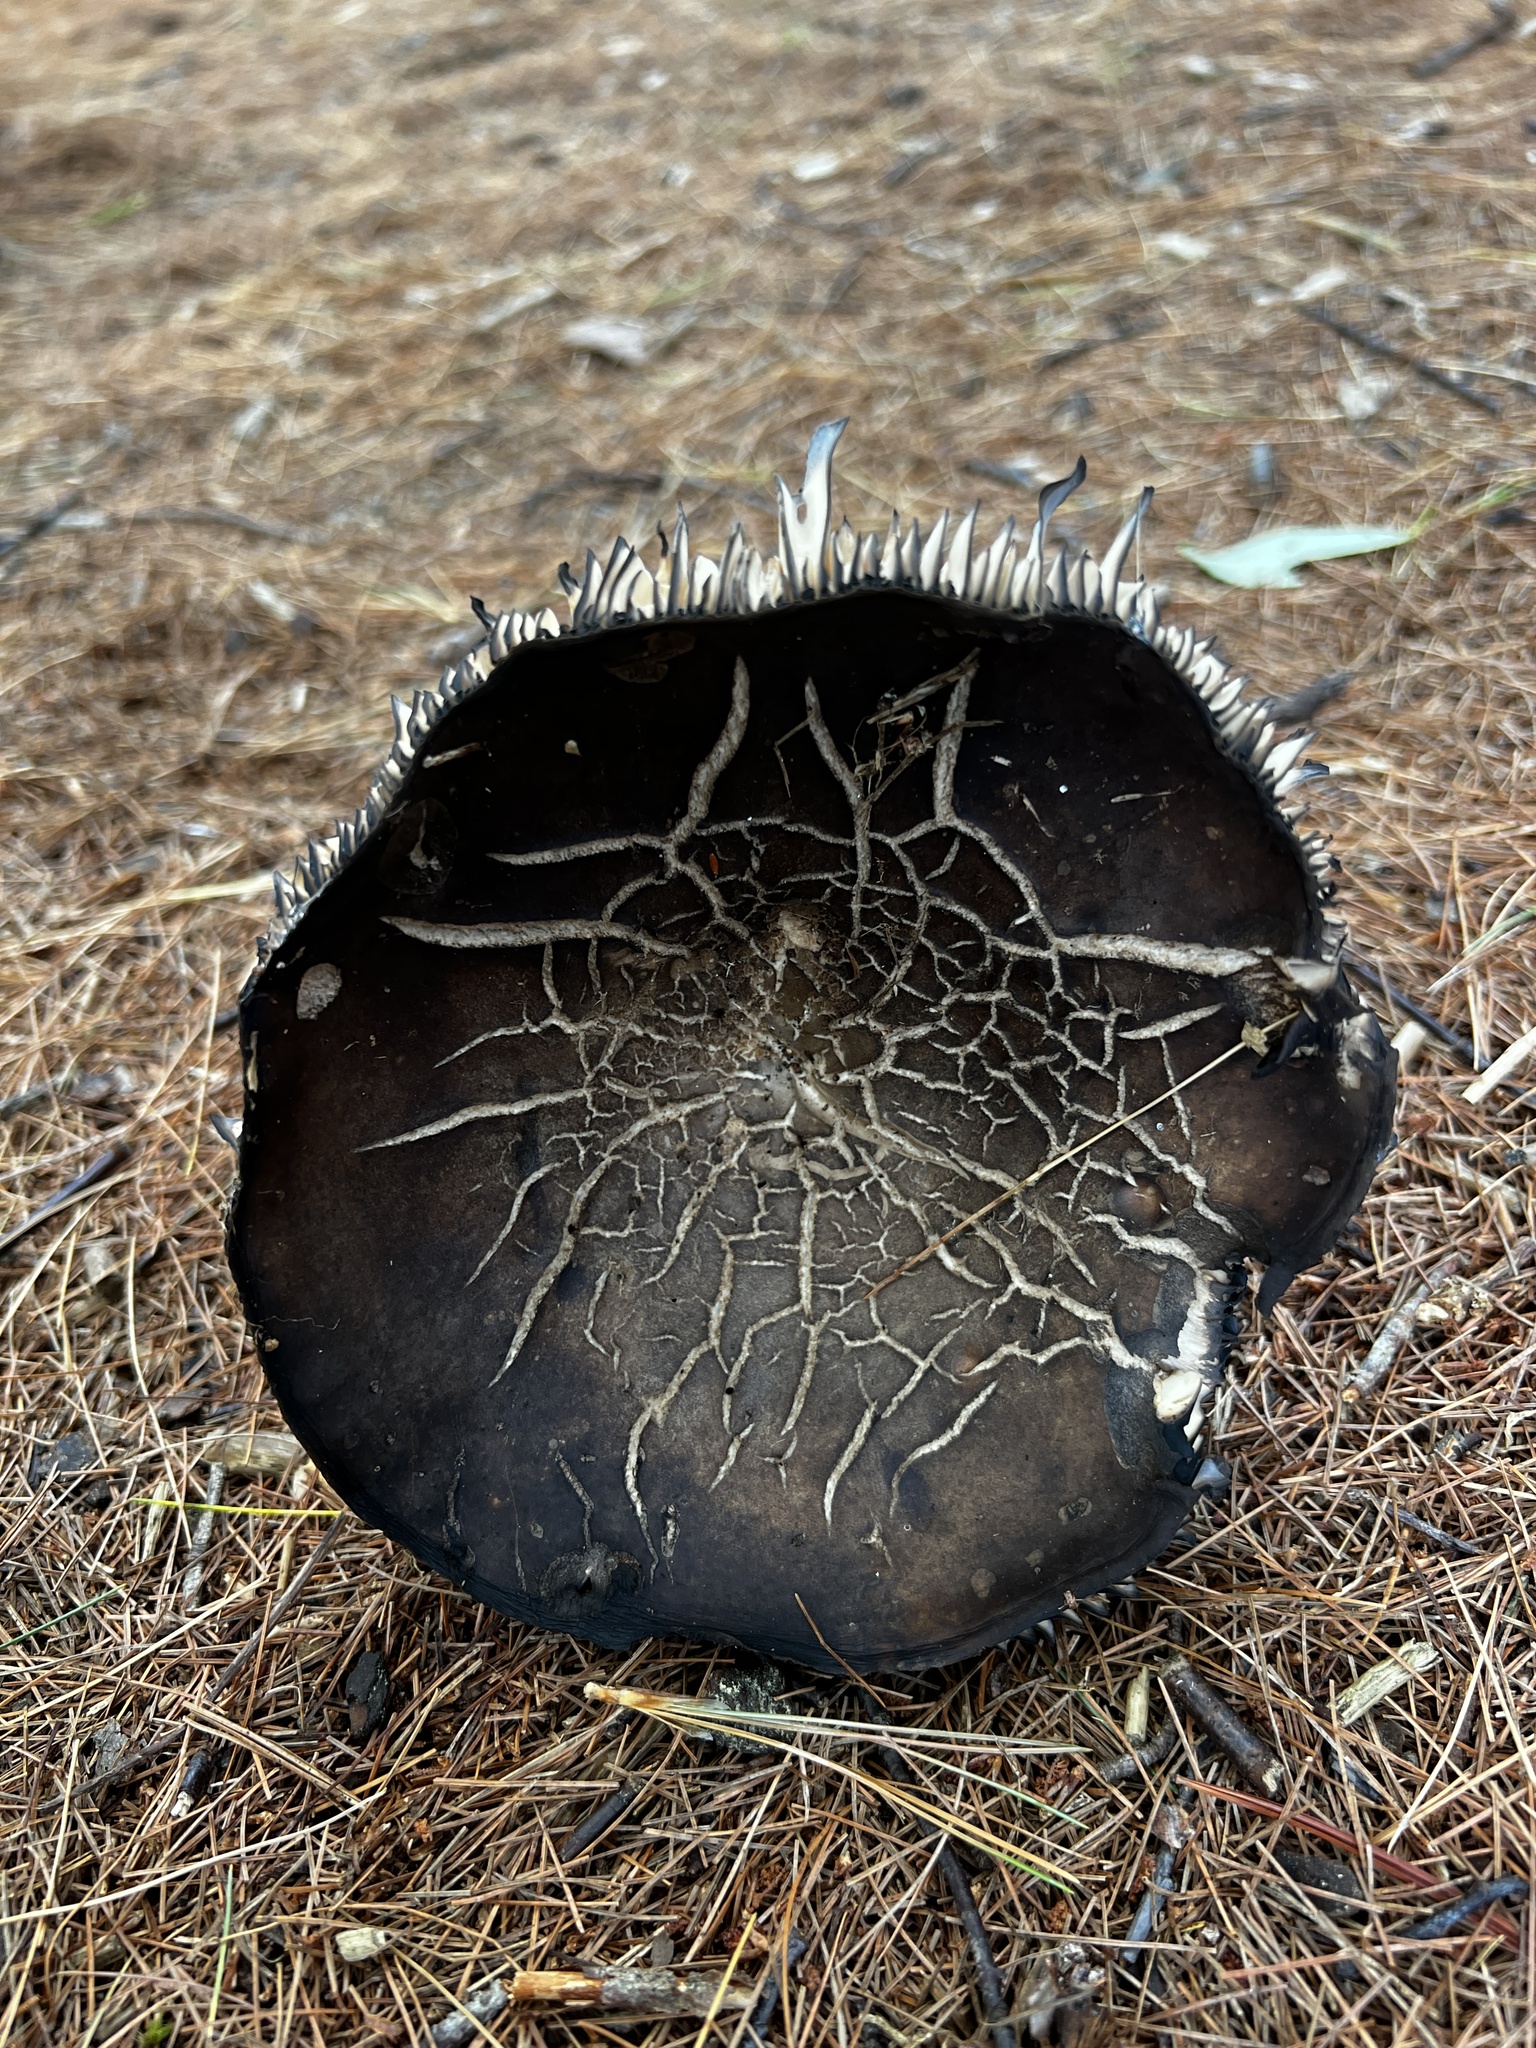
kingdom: Fungi
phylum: Basidiomycota
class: Agaricomycetes
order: Russulales
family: Russulaceae
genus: Russula
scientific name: Russula dissimulans
